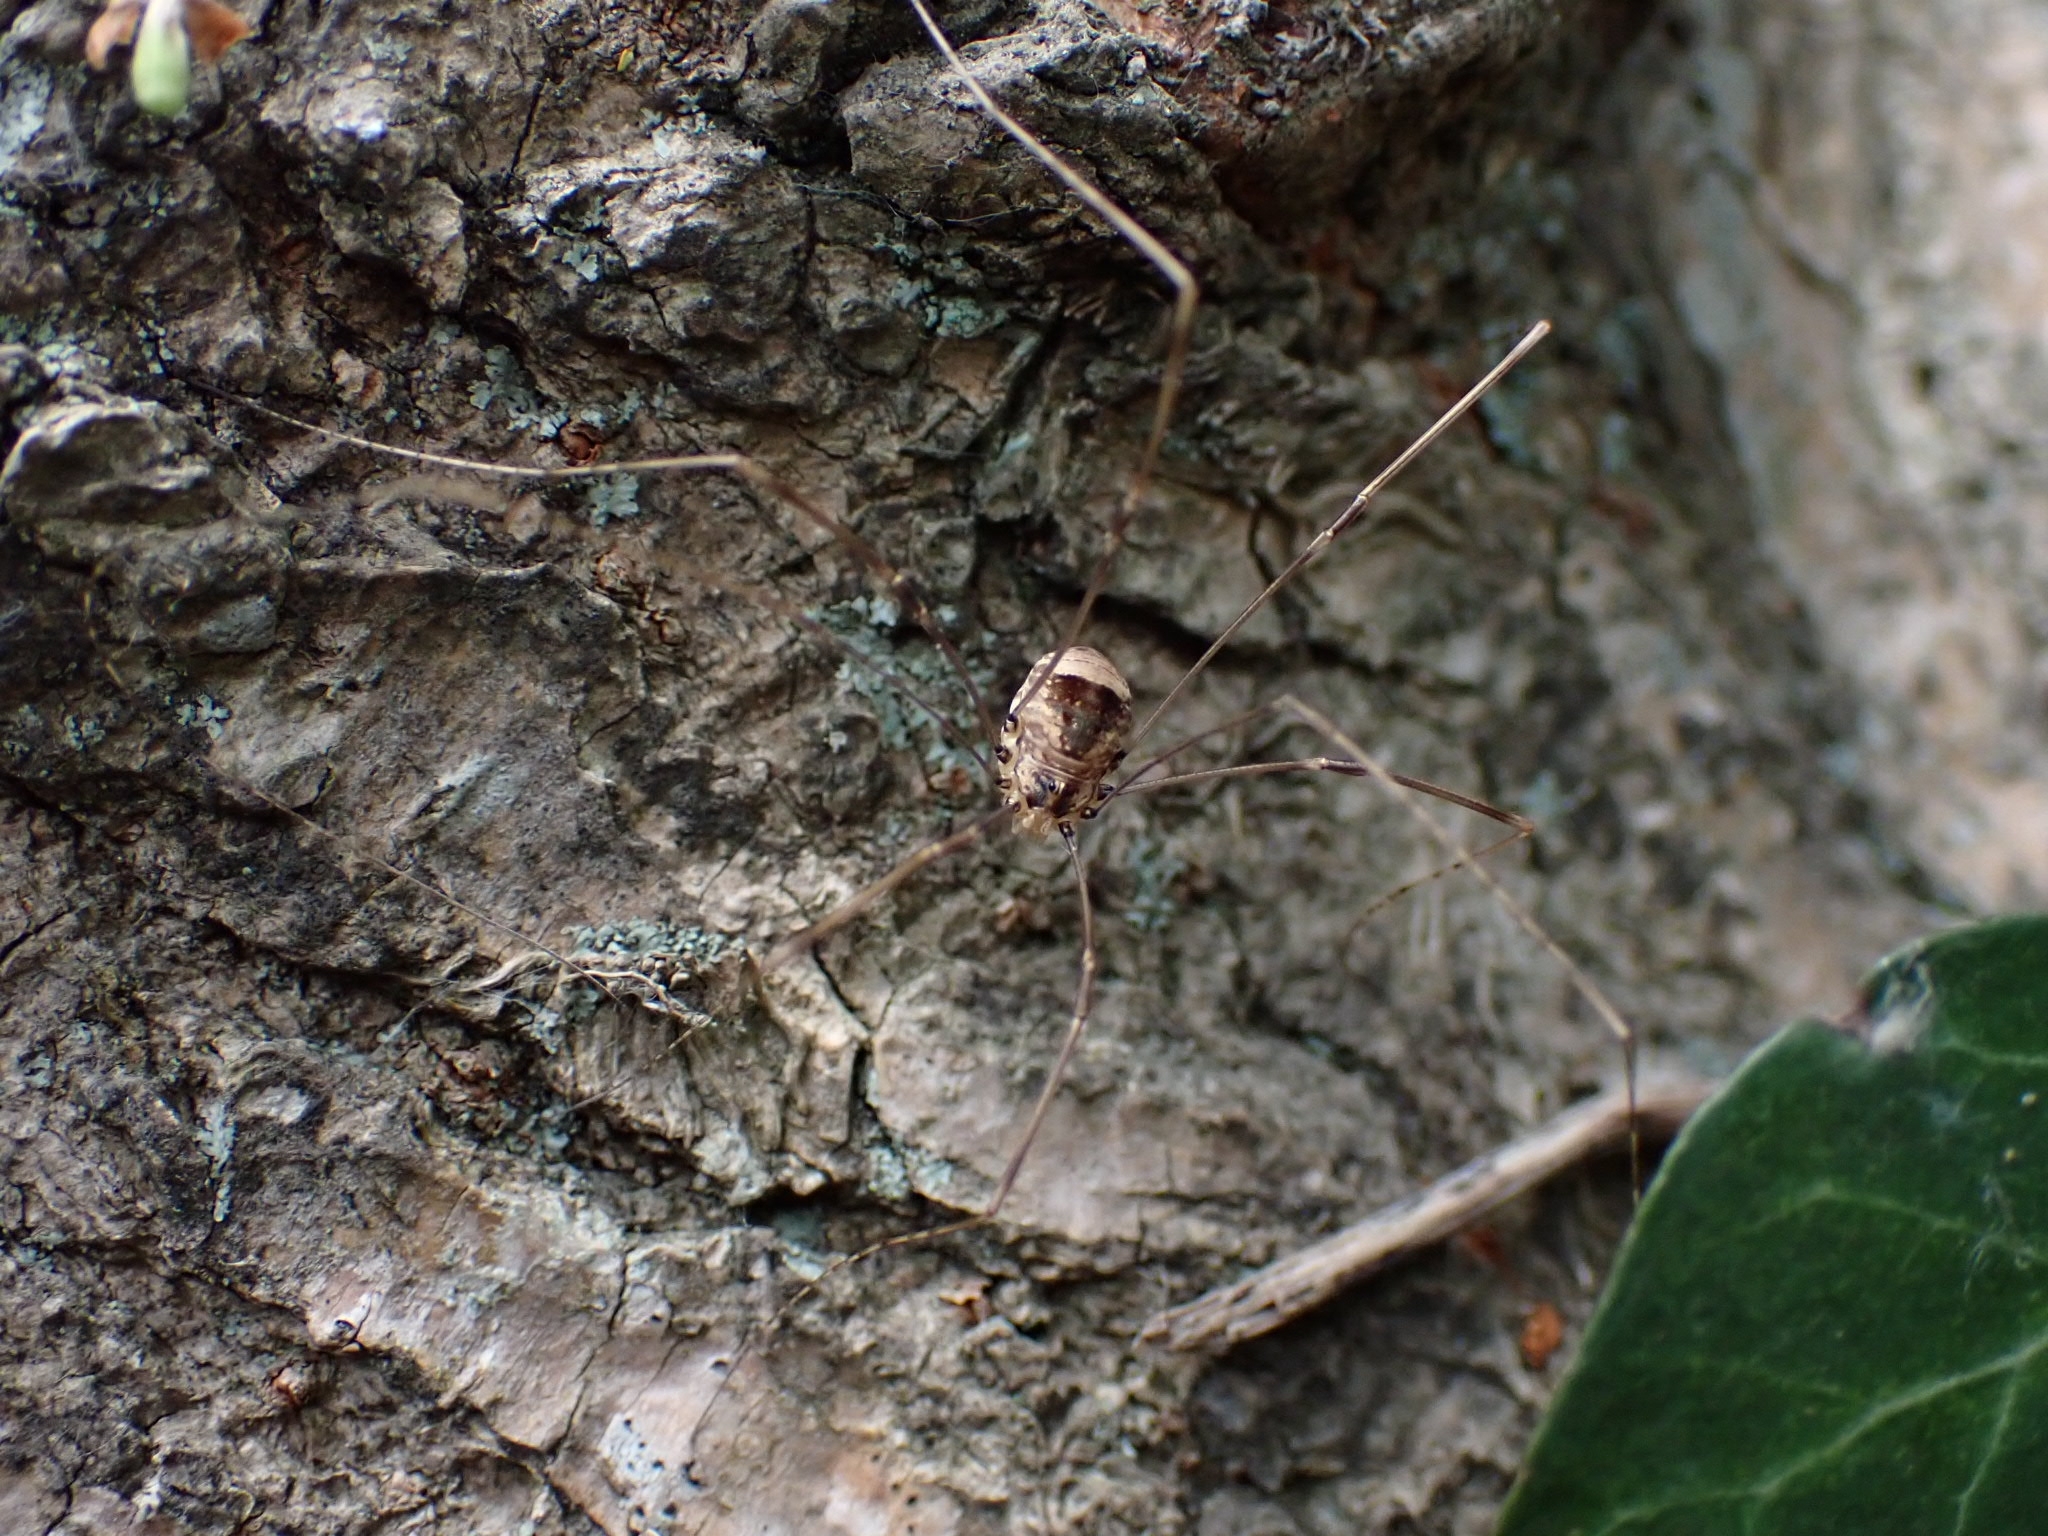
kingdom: Animalia
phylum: Arthropoda
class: Arachnida
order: Opiliones
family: Sclerosomatidae
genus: Leiobunum
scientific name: Leiobunum blackwalli
